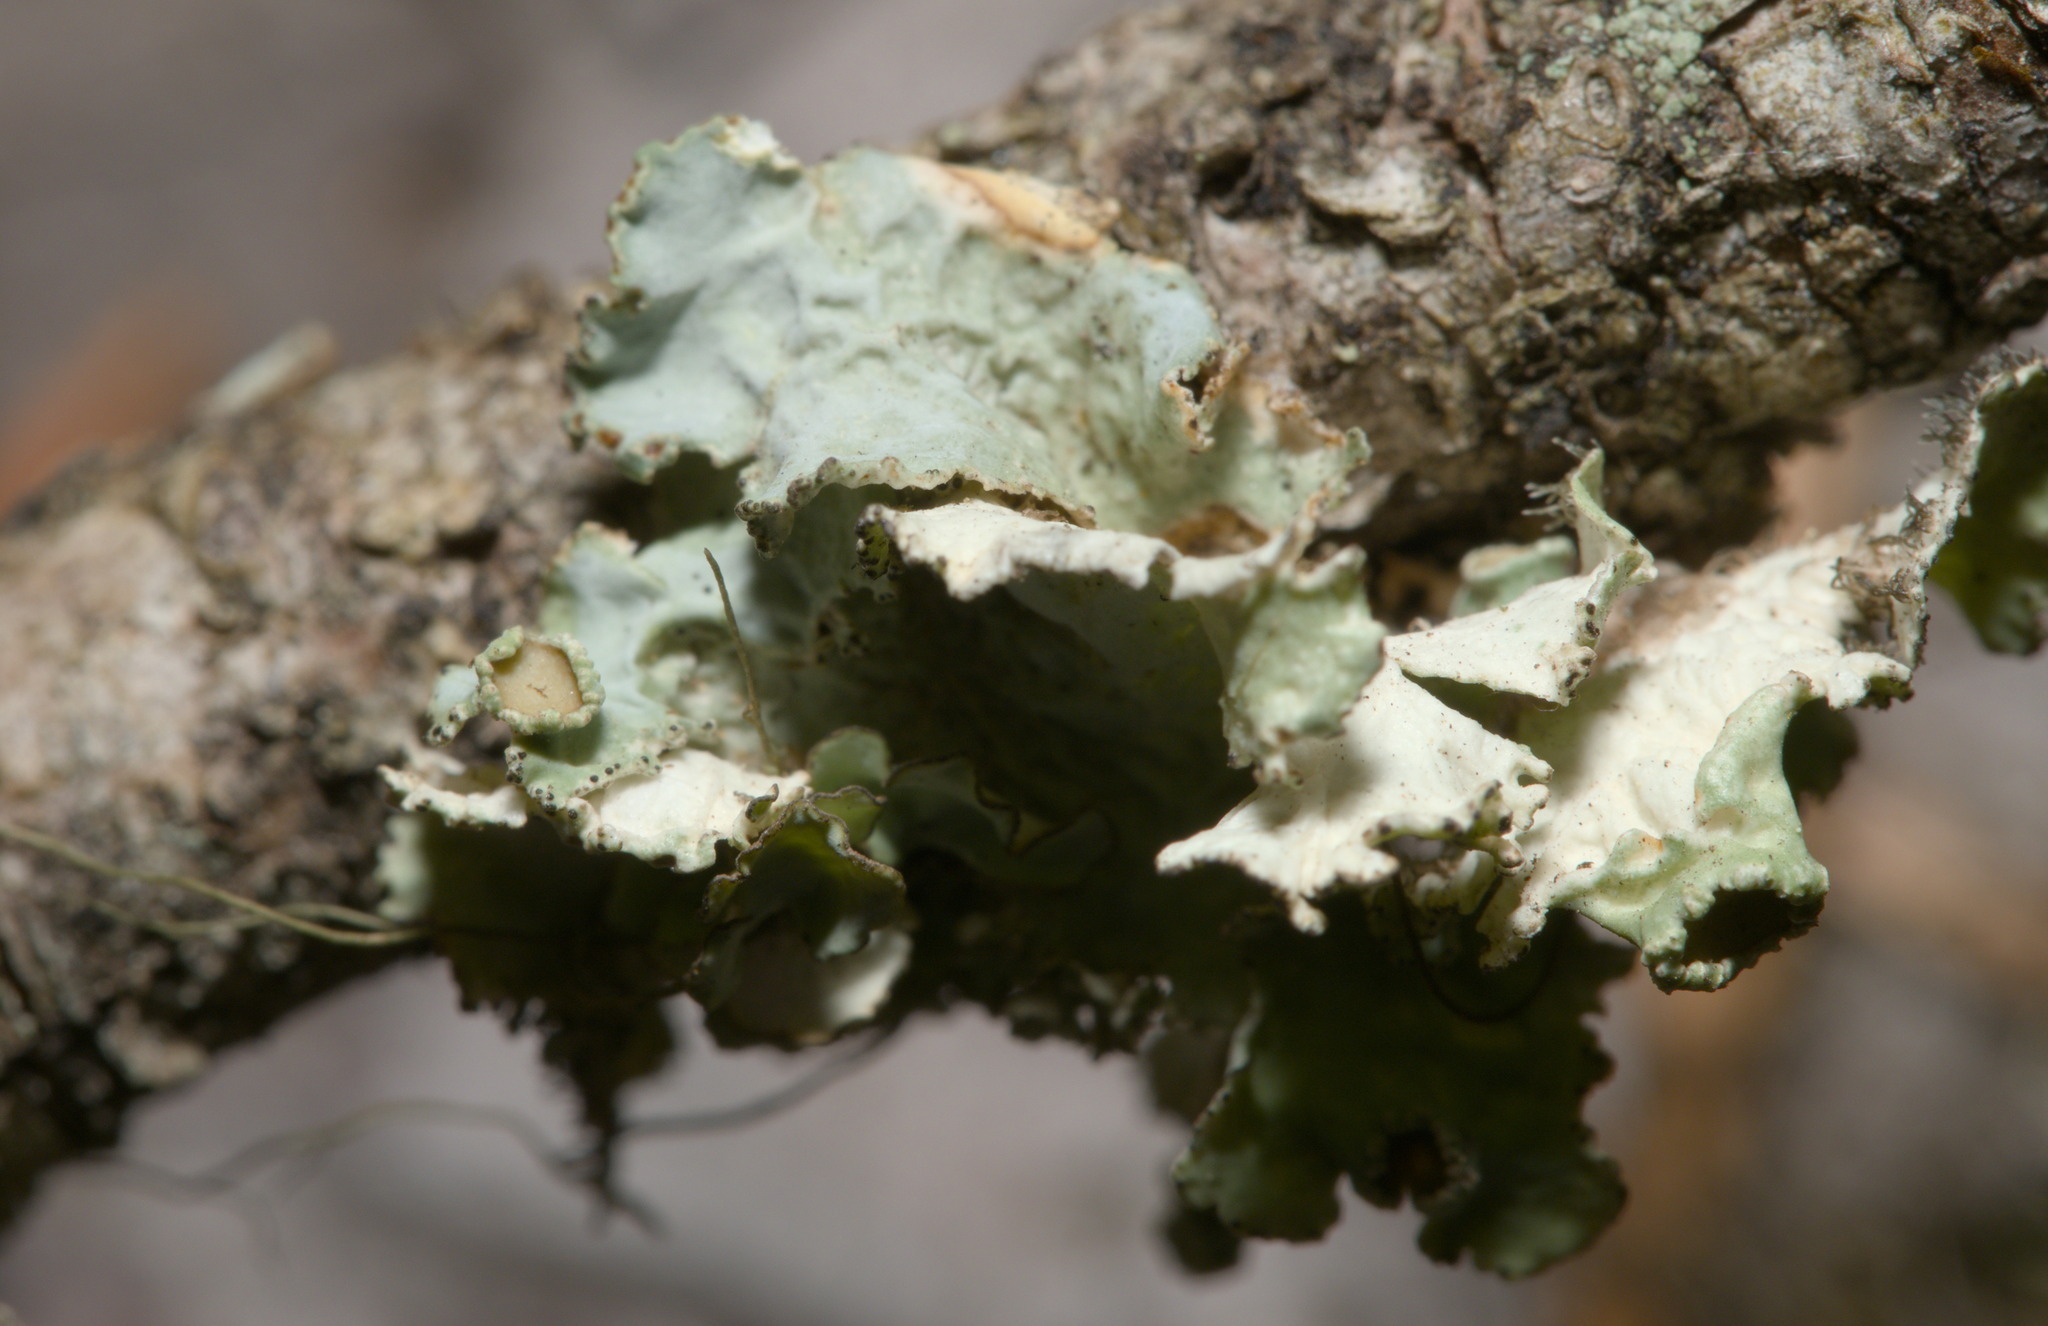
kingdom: Fungi
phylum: Ascomycota
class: Lecanoromycetes
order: Lecanorales
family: Parmeliaceae
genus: Ahtiana
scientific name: Ahtiana pallidula
